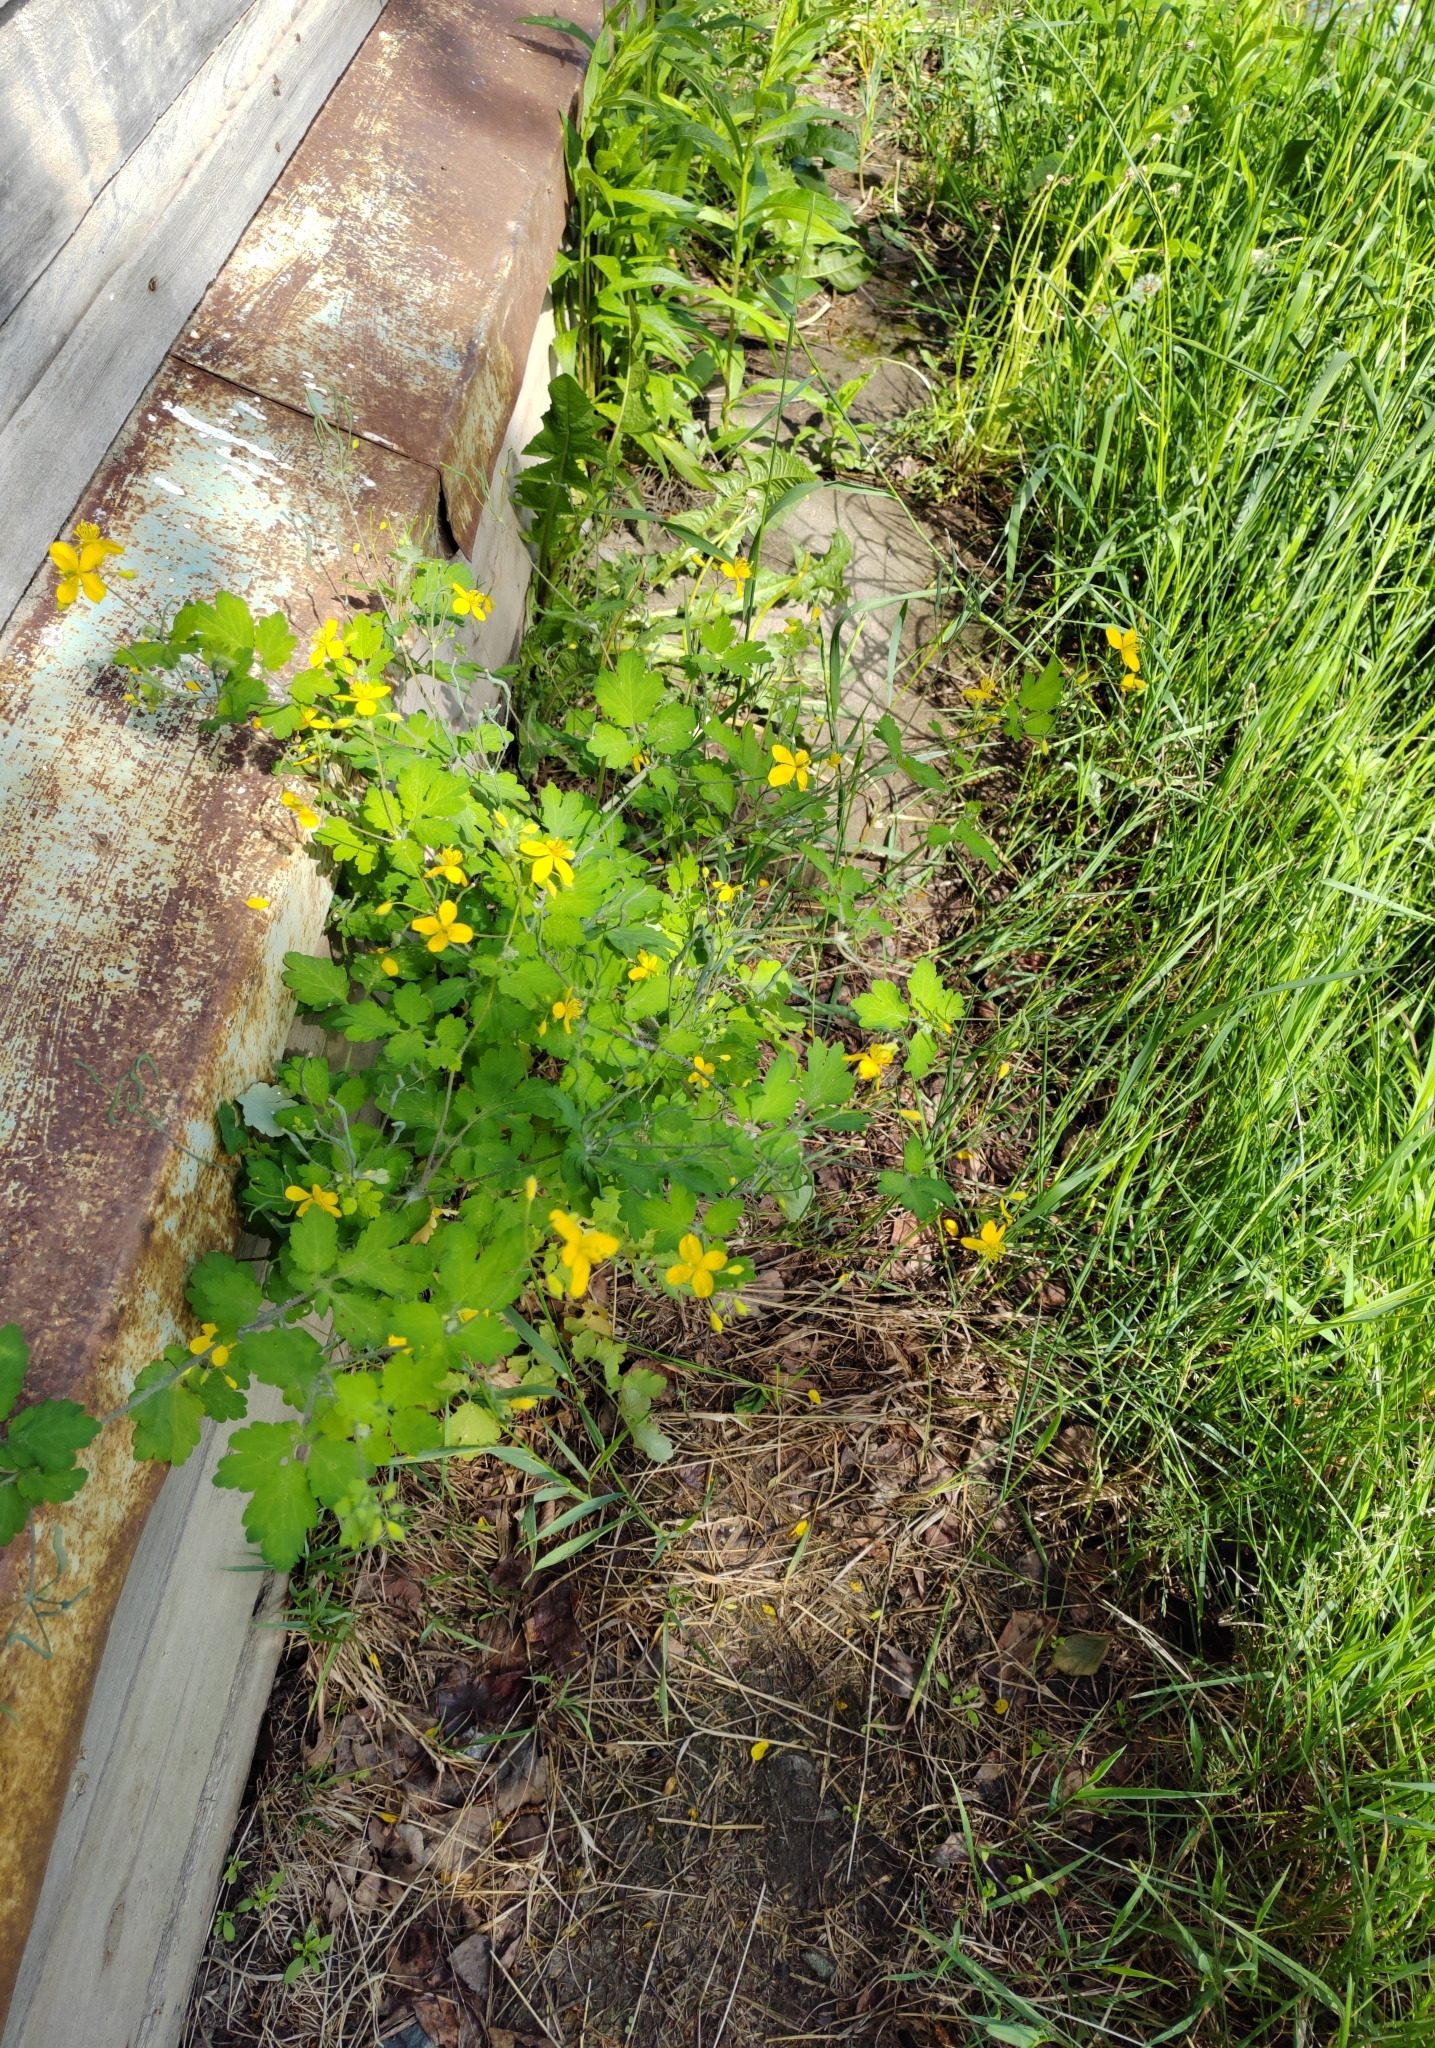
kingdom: Plantae
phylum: Tracheophyta
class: Magnoliopsida
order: Ranunculales
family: Papaveraceae
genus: Chelidonium
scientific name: Chelidonium majus
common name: Greater celandine
